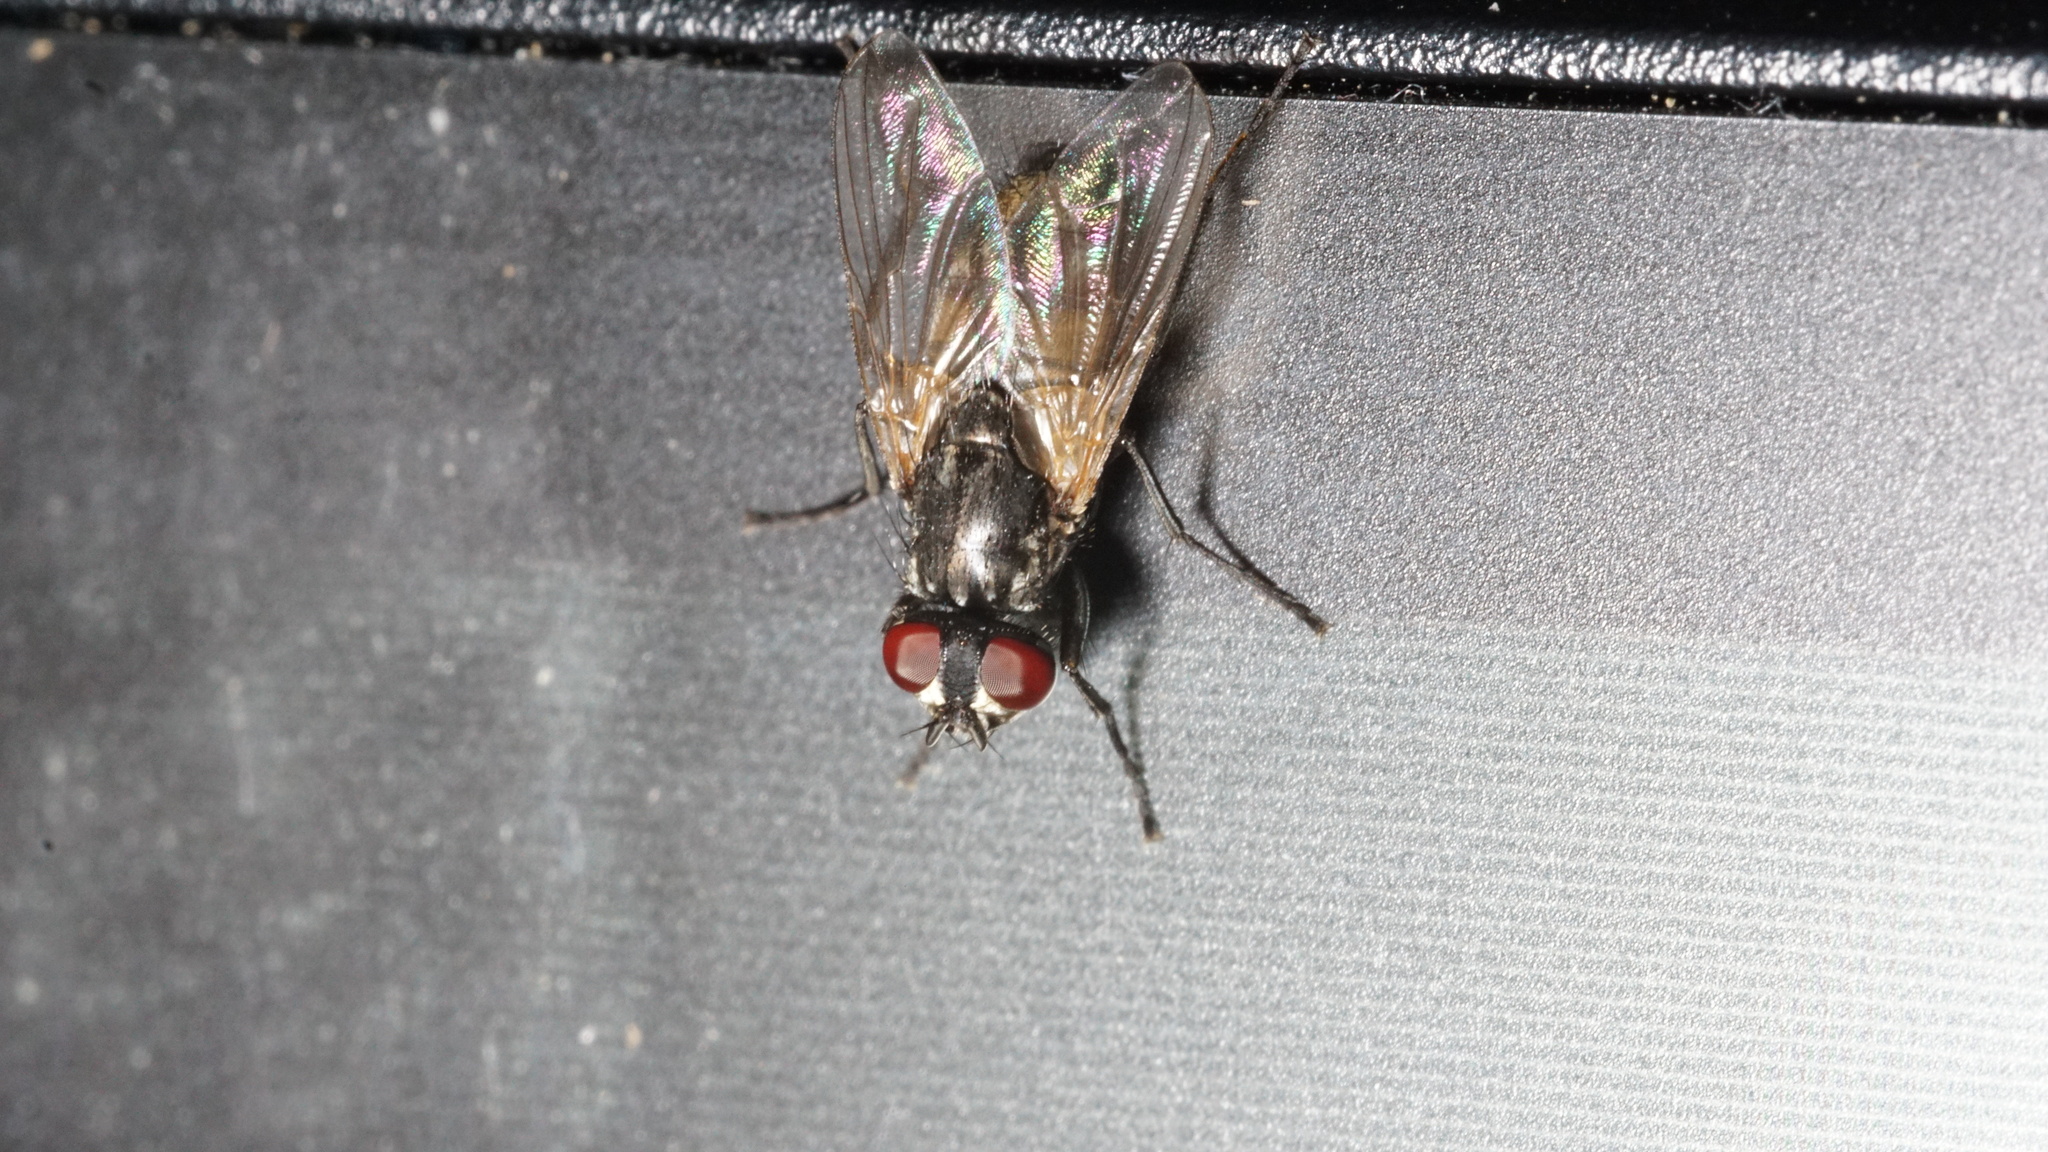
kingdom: Animalia
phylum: Arthropoda
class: Insecta
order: Diptera
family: Muscidae
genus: Musca
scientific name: Musca domestica
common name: House fly
